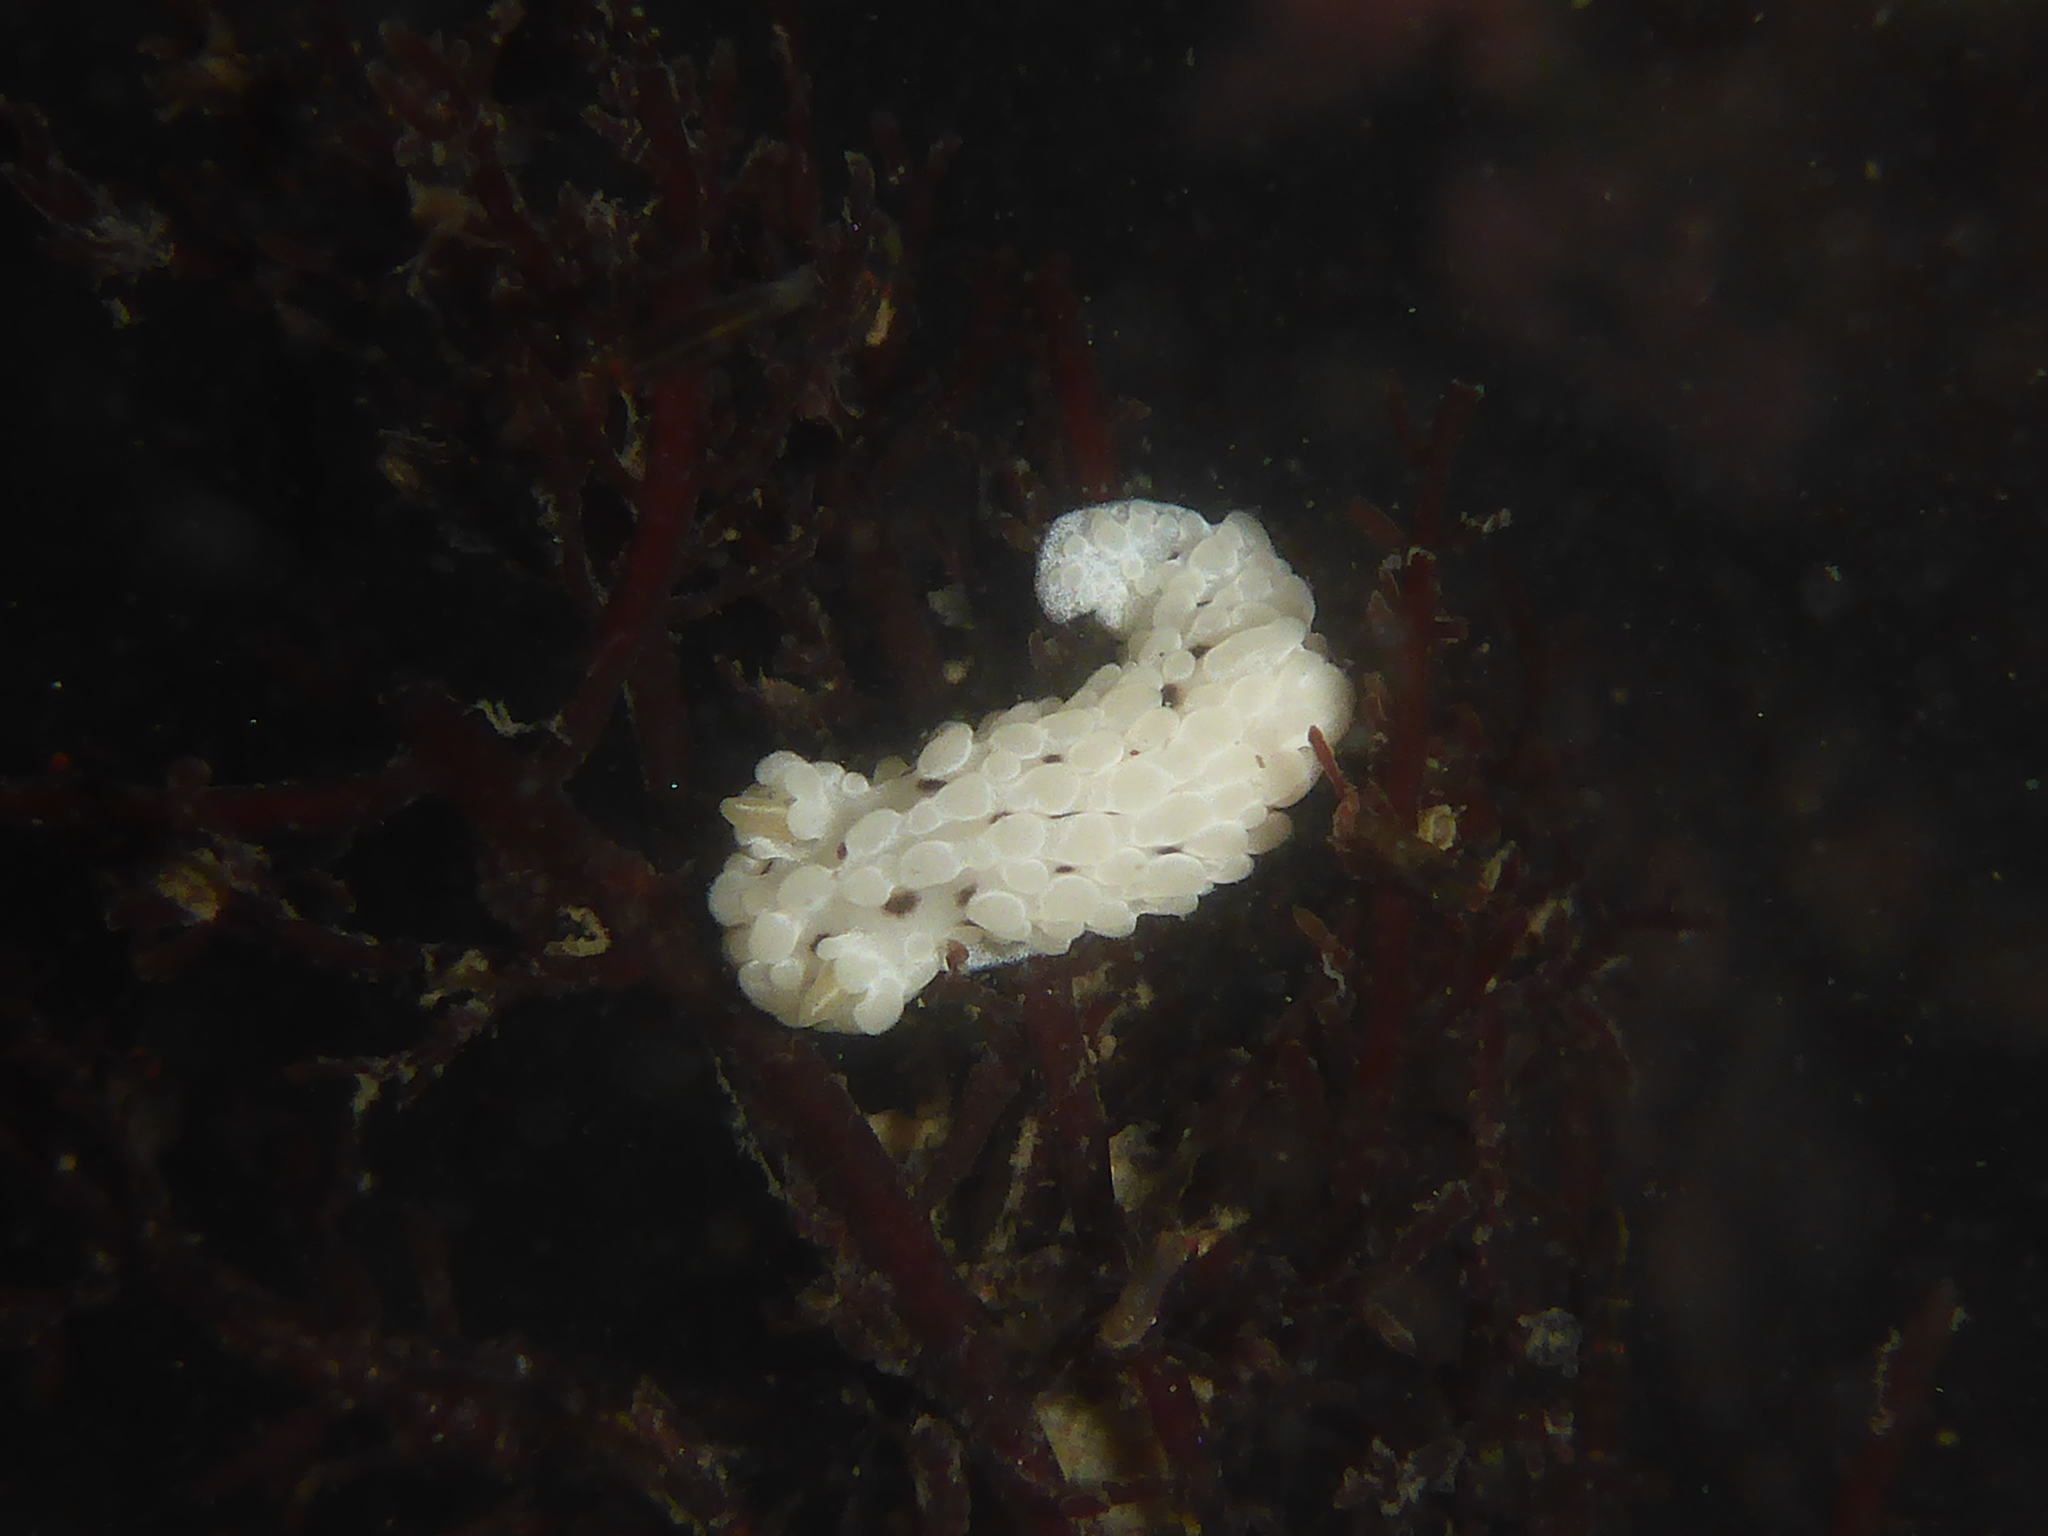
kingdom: Animalia
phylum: Mollusca
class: Gastropoda
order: Nudibranchia
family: Aegiridae
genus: Aegires
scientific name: Aegires albopunctatus
